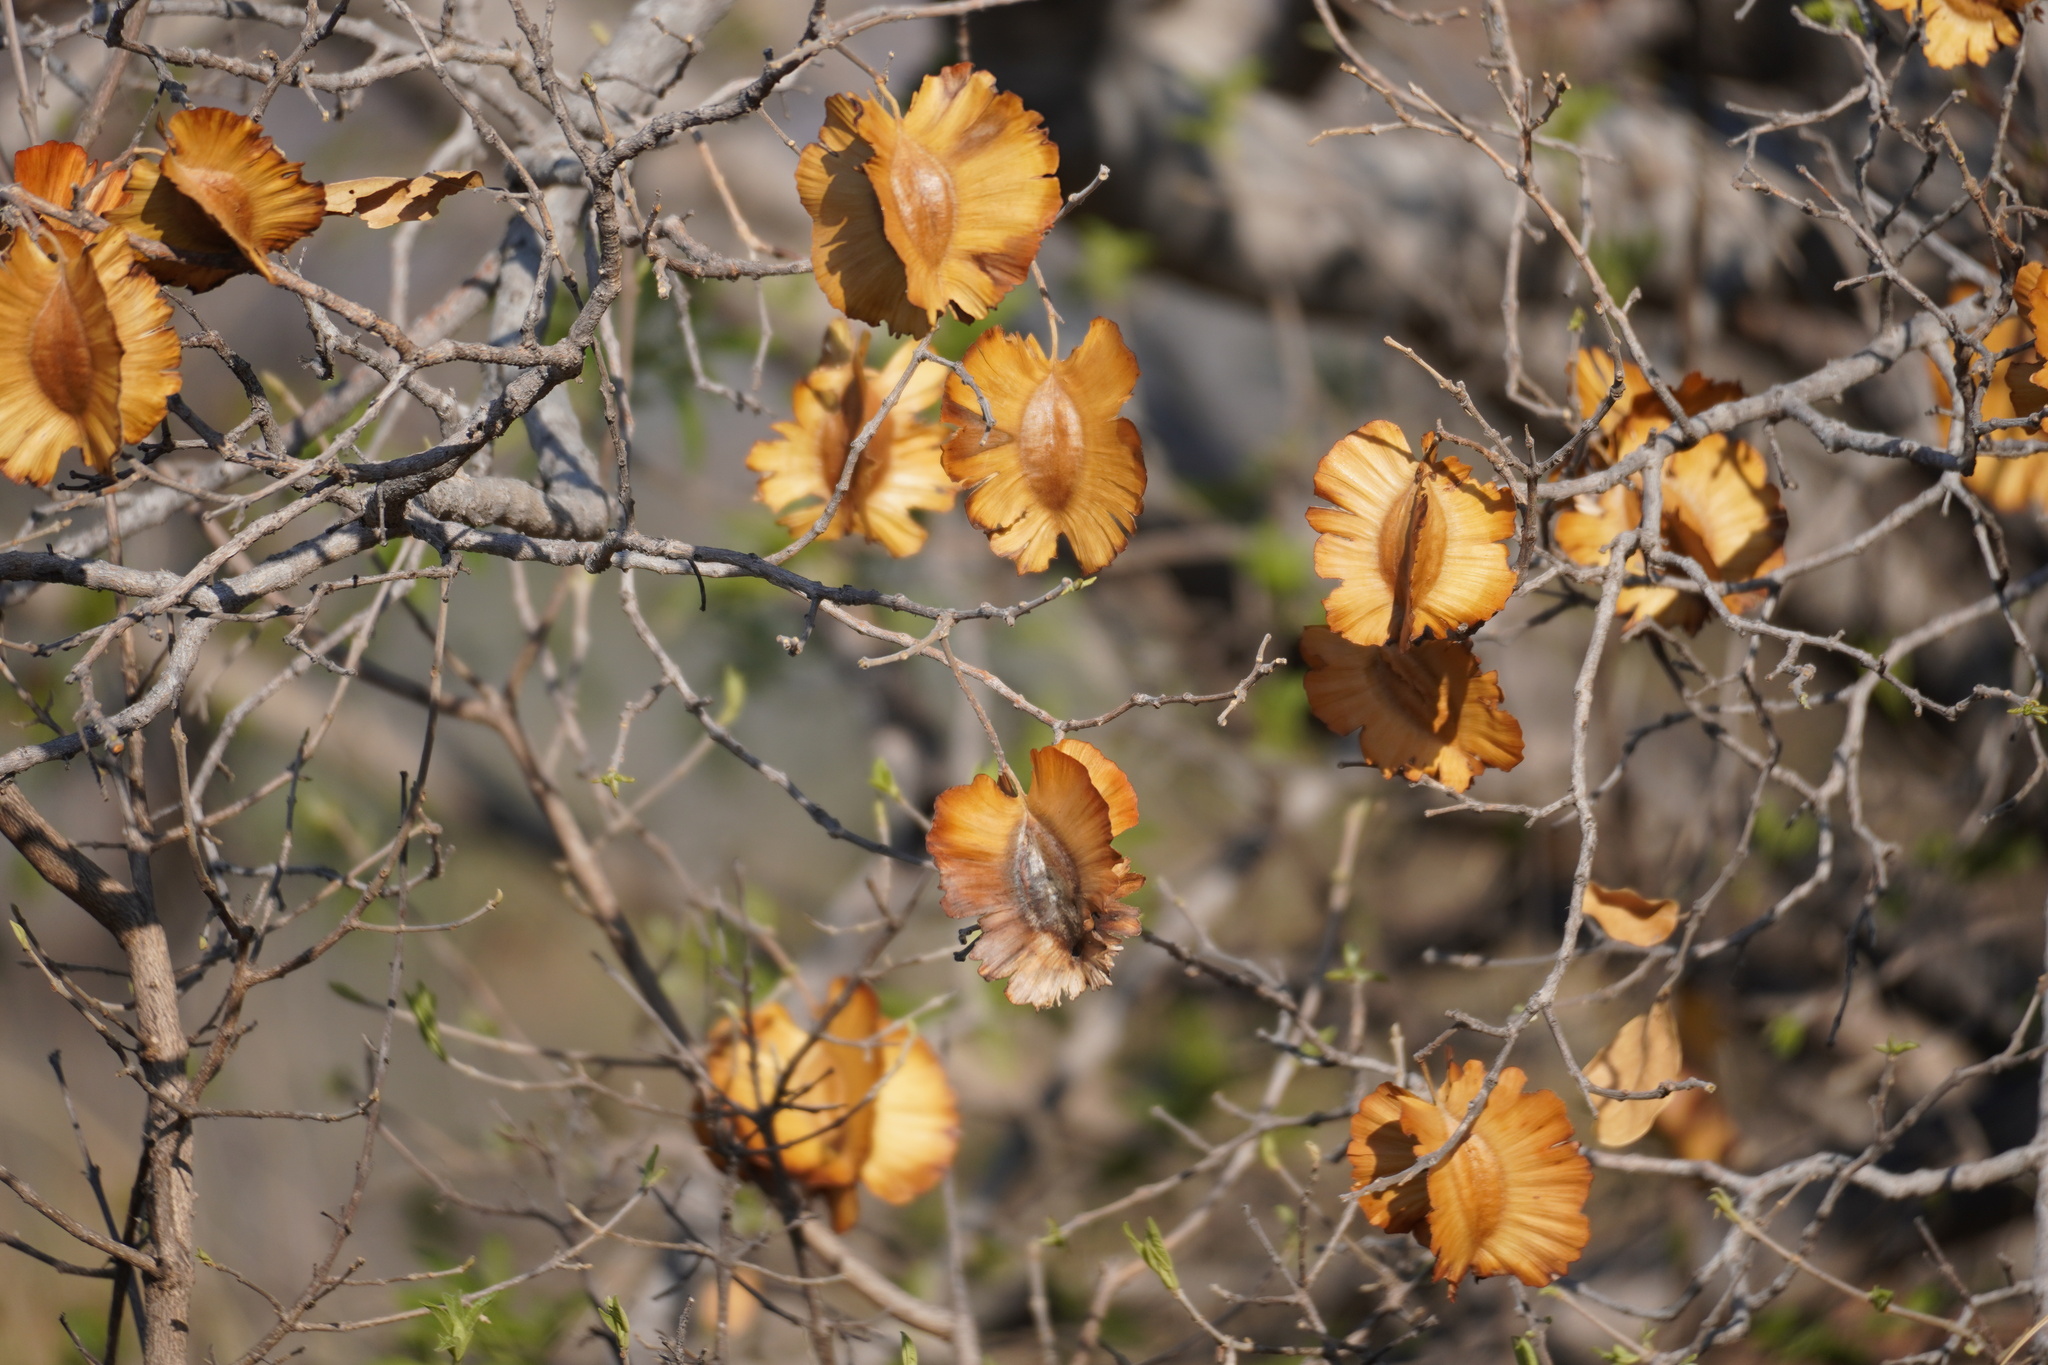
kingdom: Plantae
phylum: Tracheophyta
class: Magnoliopsida
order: Myrtales
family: Combretaceae
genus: Combretum
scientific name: Combretum zeyheri
